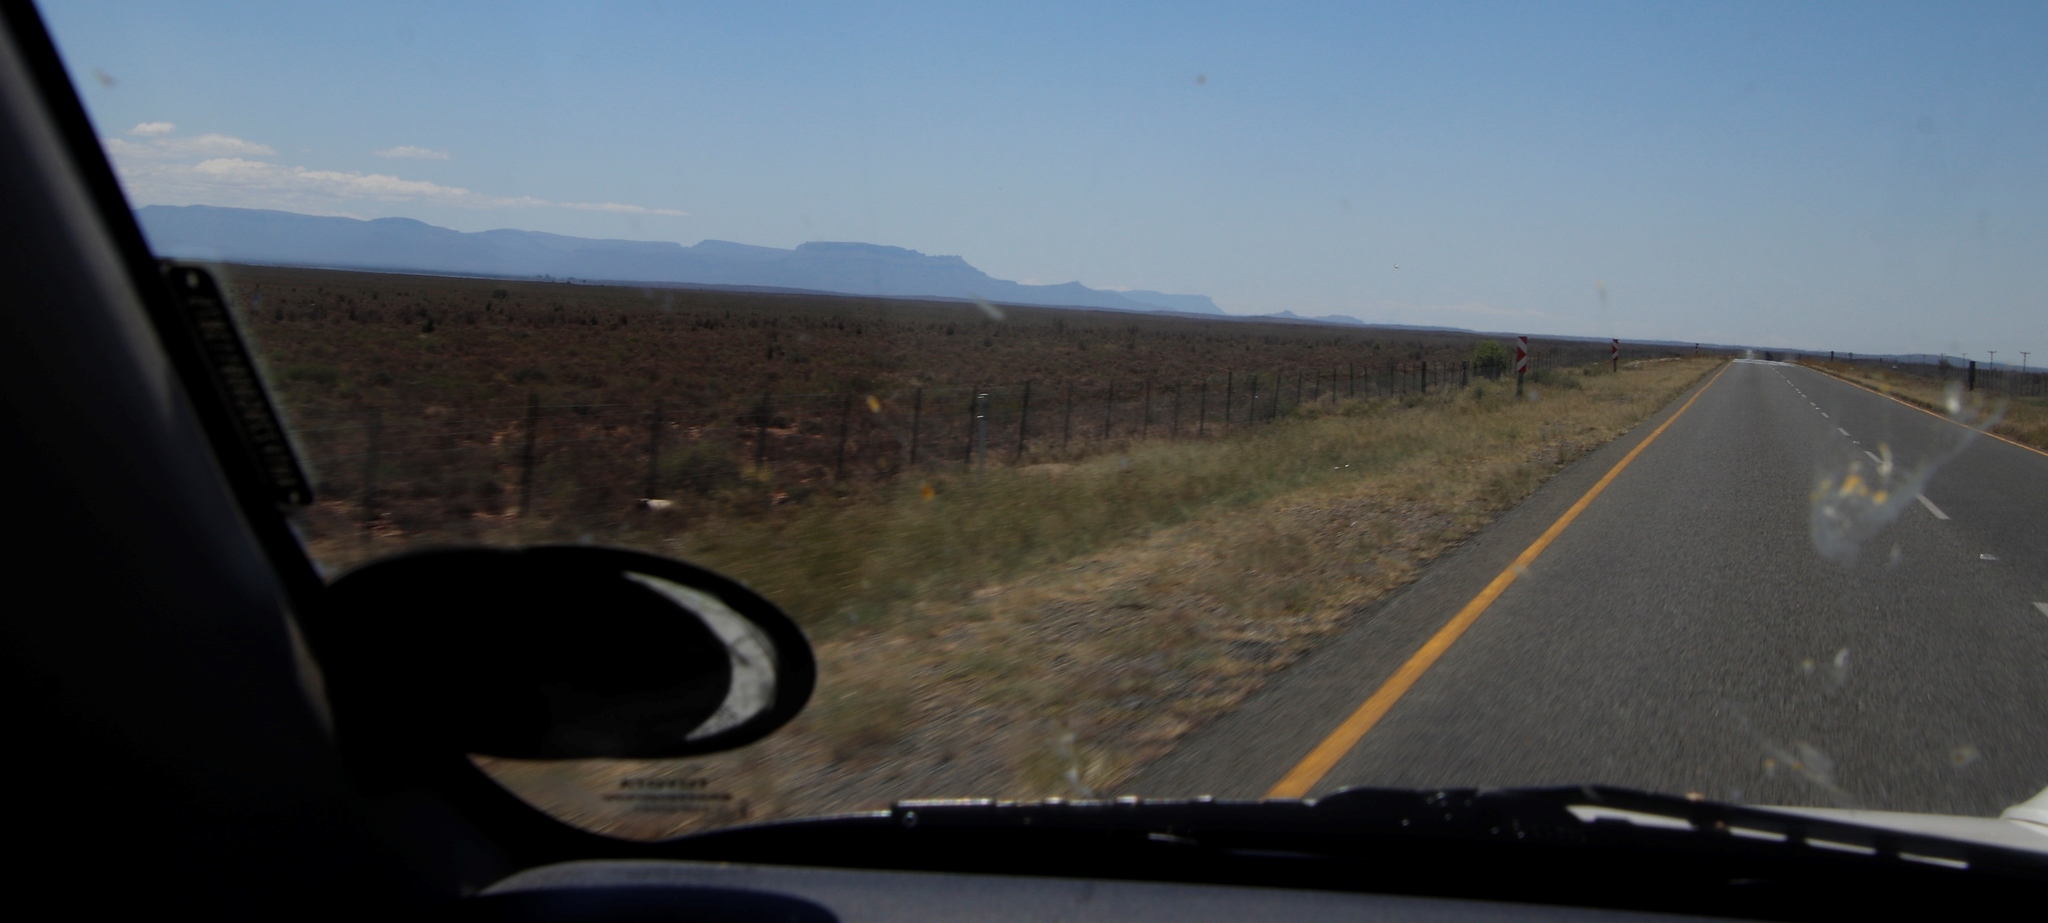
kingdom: Animalia
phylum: Arthropoda
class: Insecta
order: Orthoptera
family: Acrididae
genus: Locustana
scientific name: Locustana pardalina
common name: Brown locust
